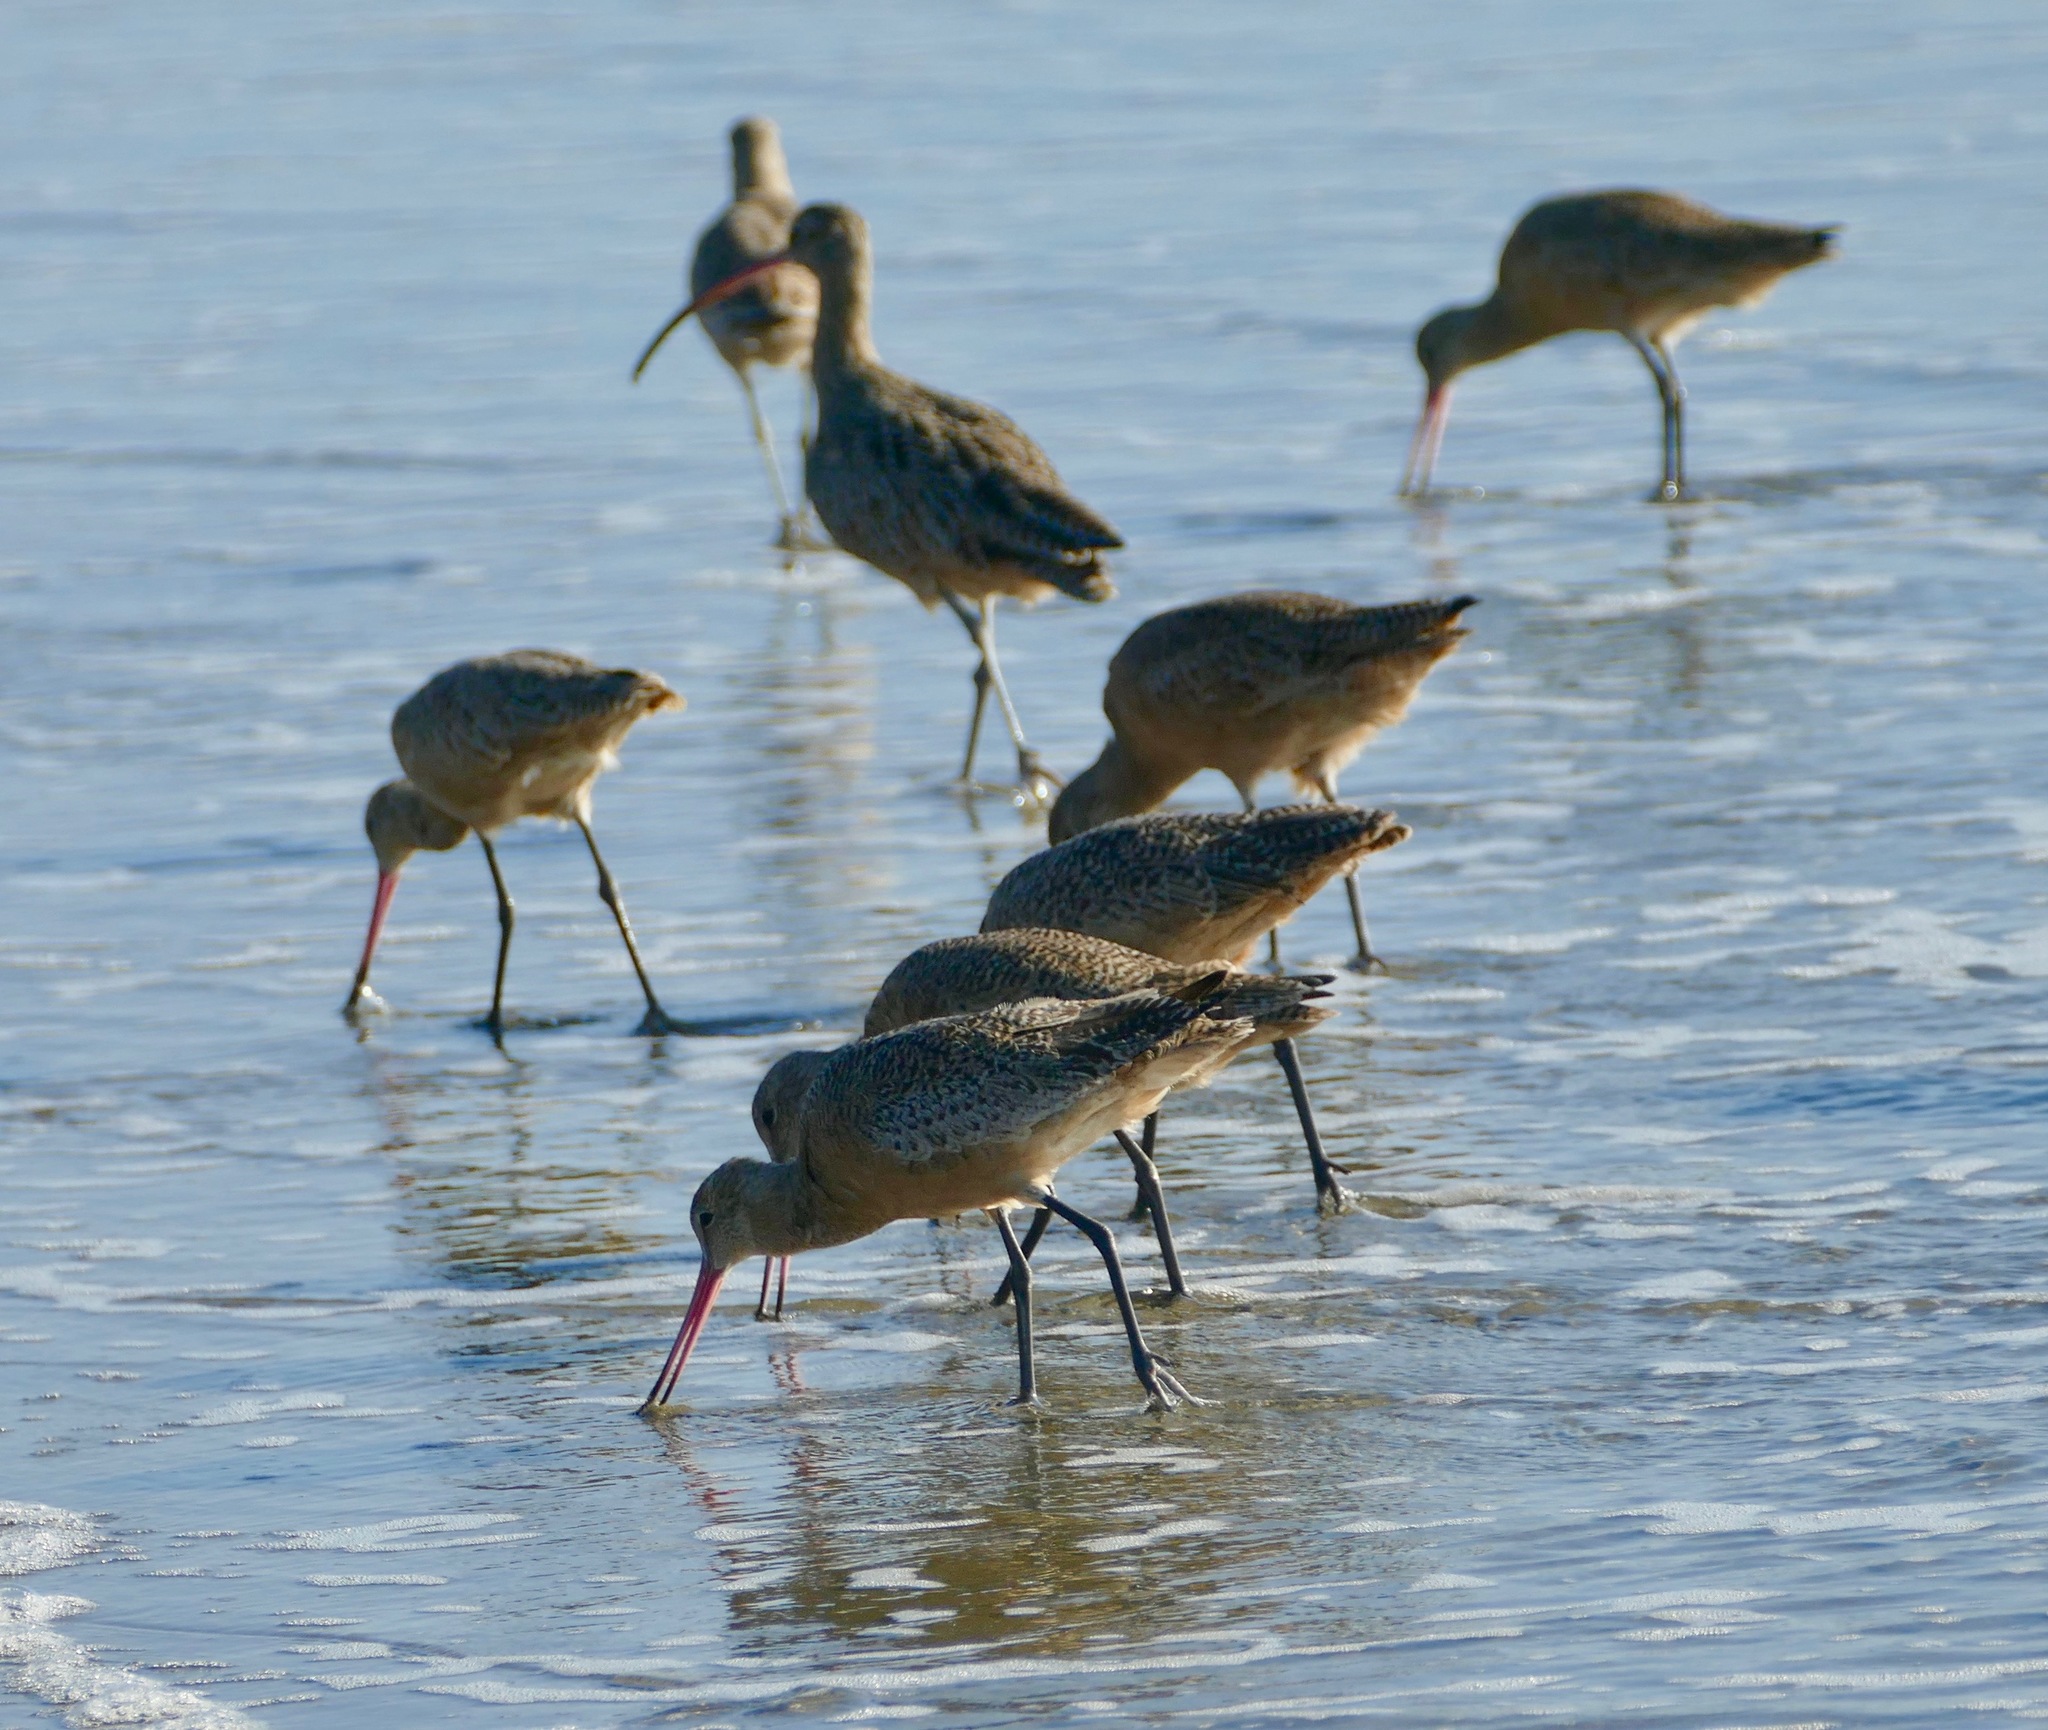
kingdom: Animalia
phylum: Chordata
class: Aves
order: Charadriiformes
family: Scolopacidae
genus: Limosa
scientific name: Limosa fedoa
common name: Marbled godwit
